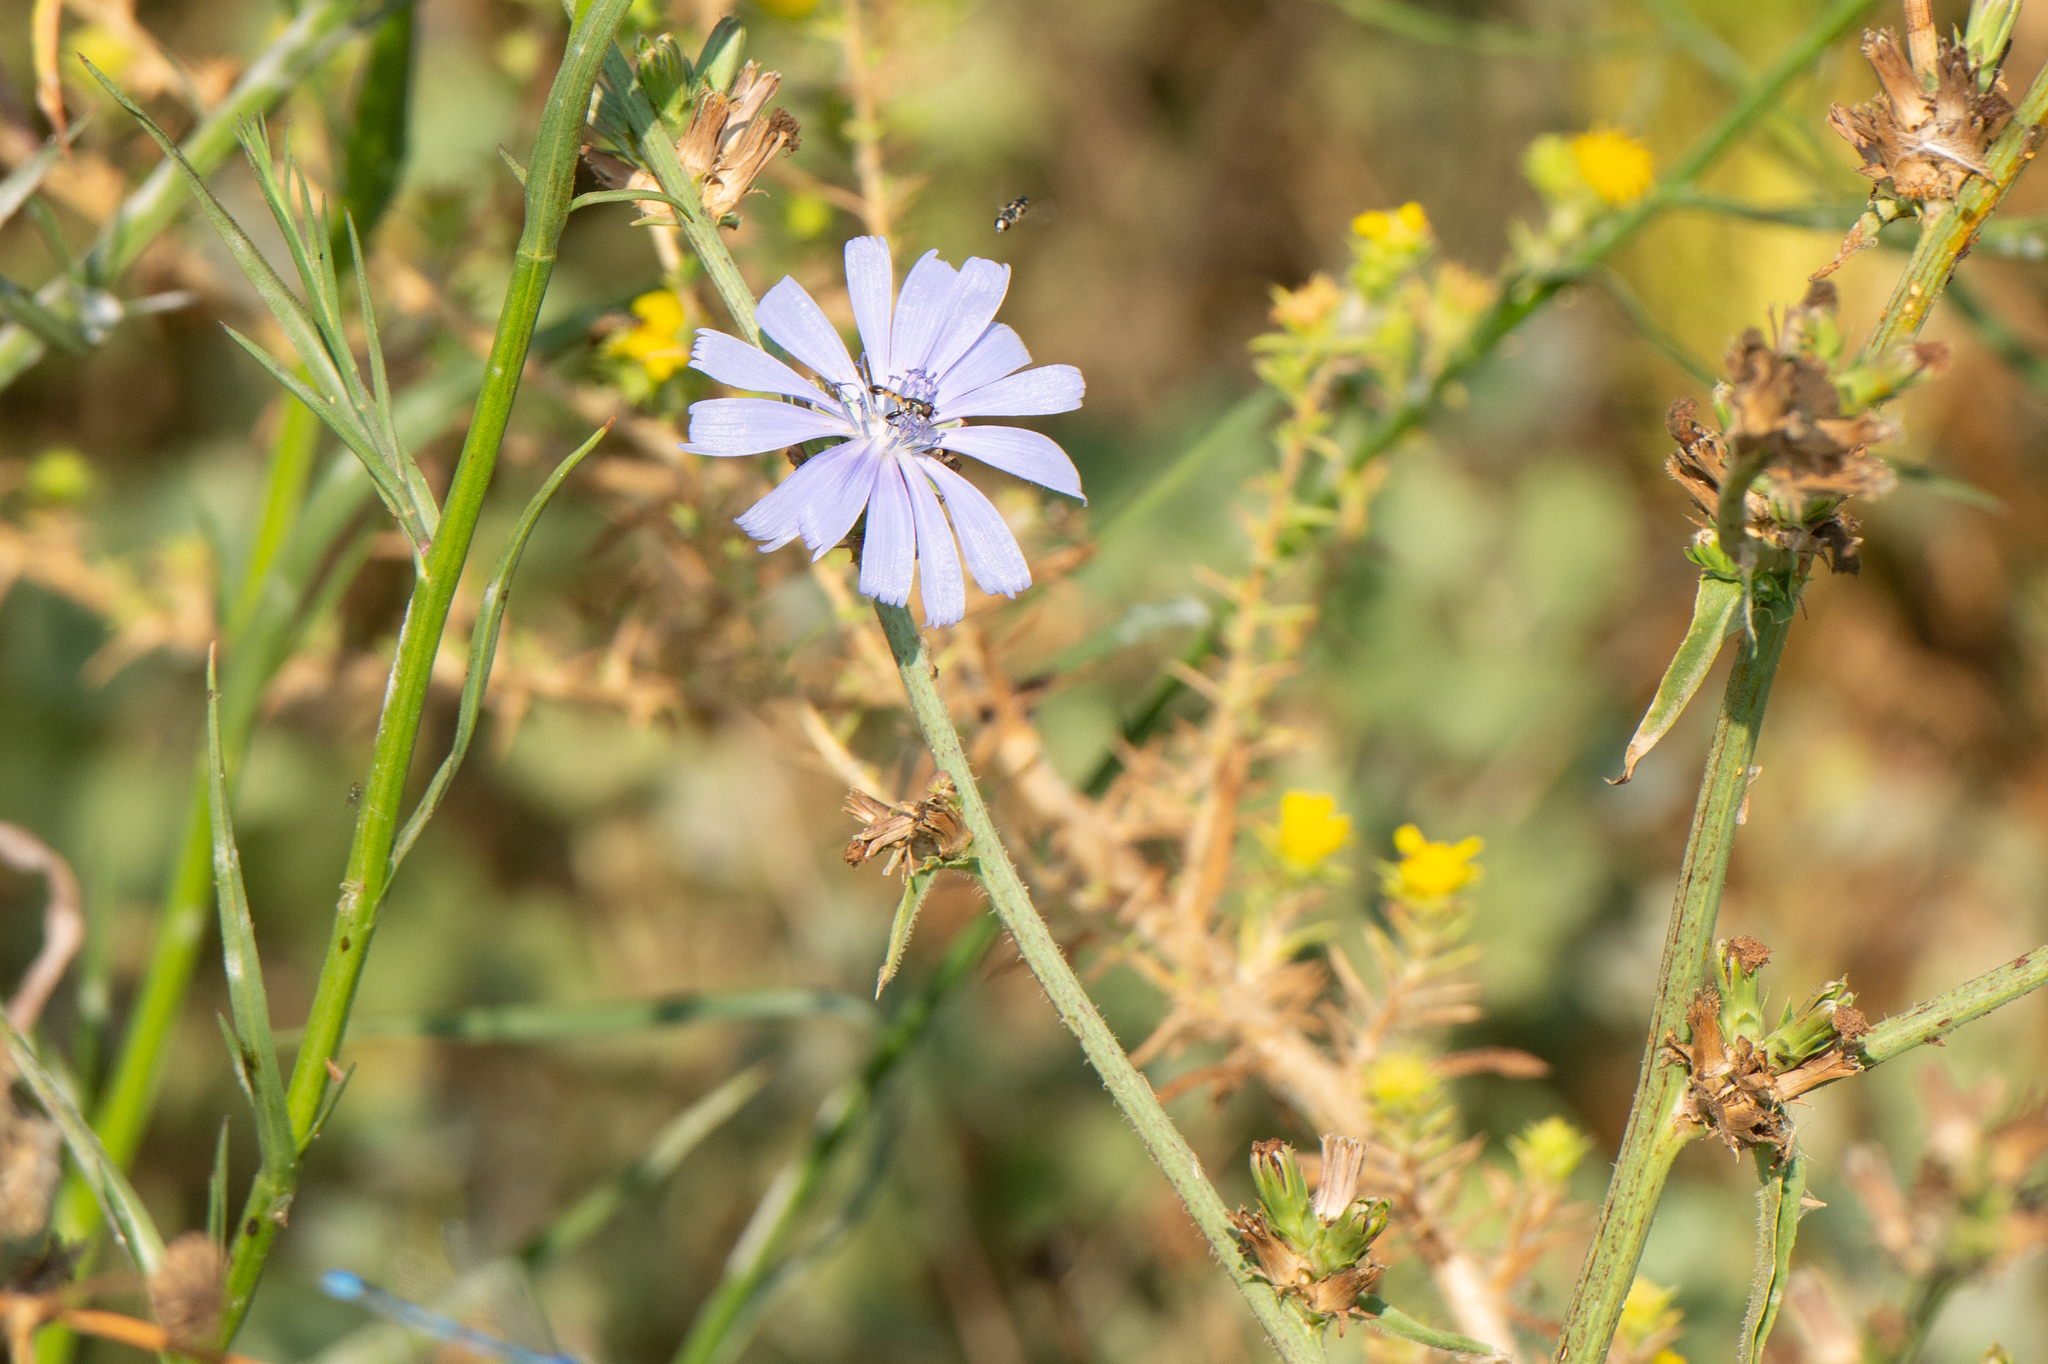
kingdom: Plantae
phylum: Tracheophyta
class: Magnoliopsida
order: Asterales
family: Asteraceae
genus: Cichorium
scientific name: Cichorium intybus
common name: Chicory
